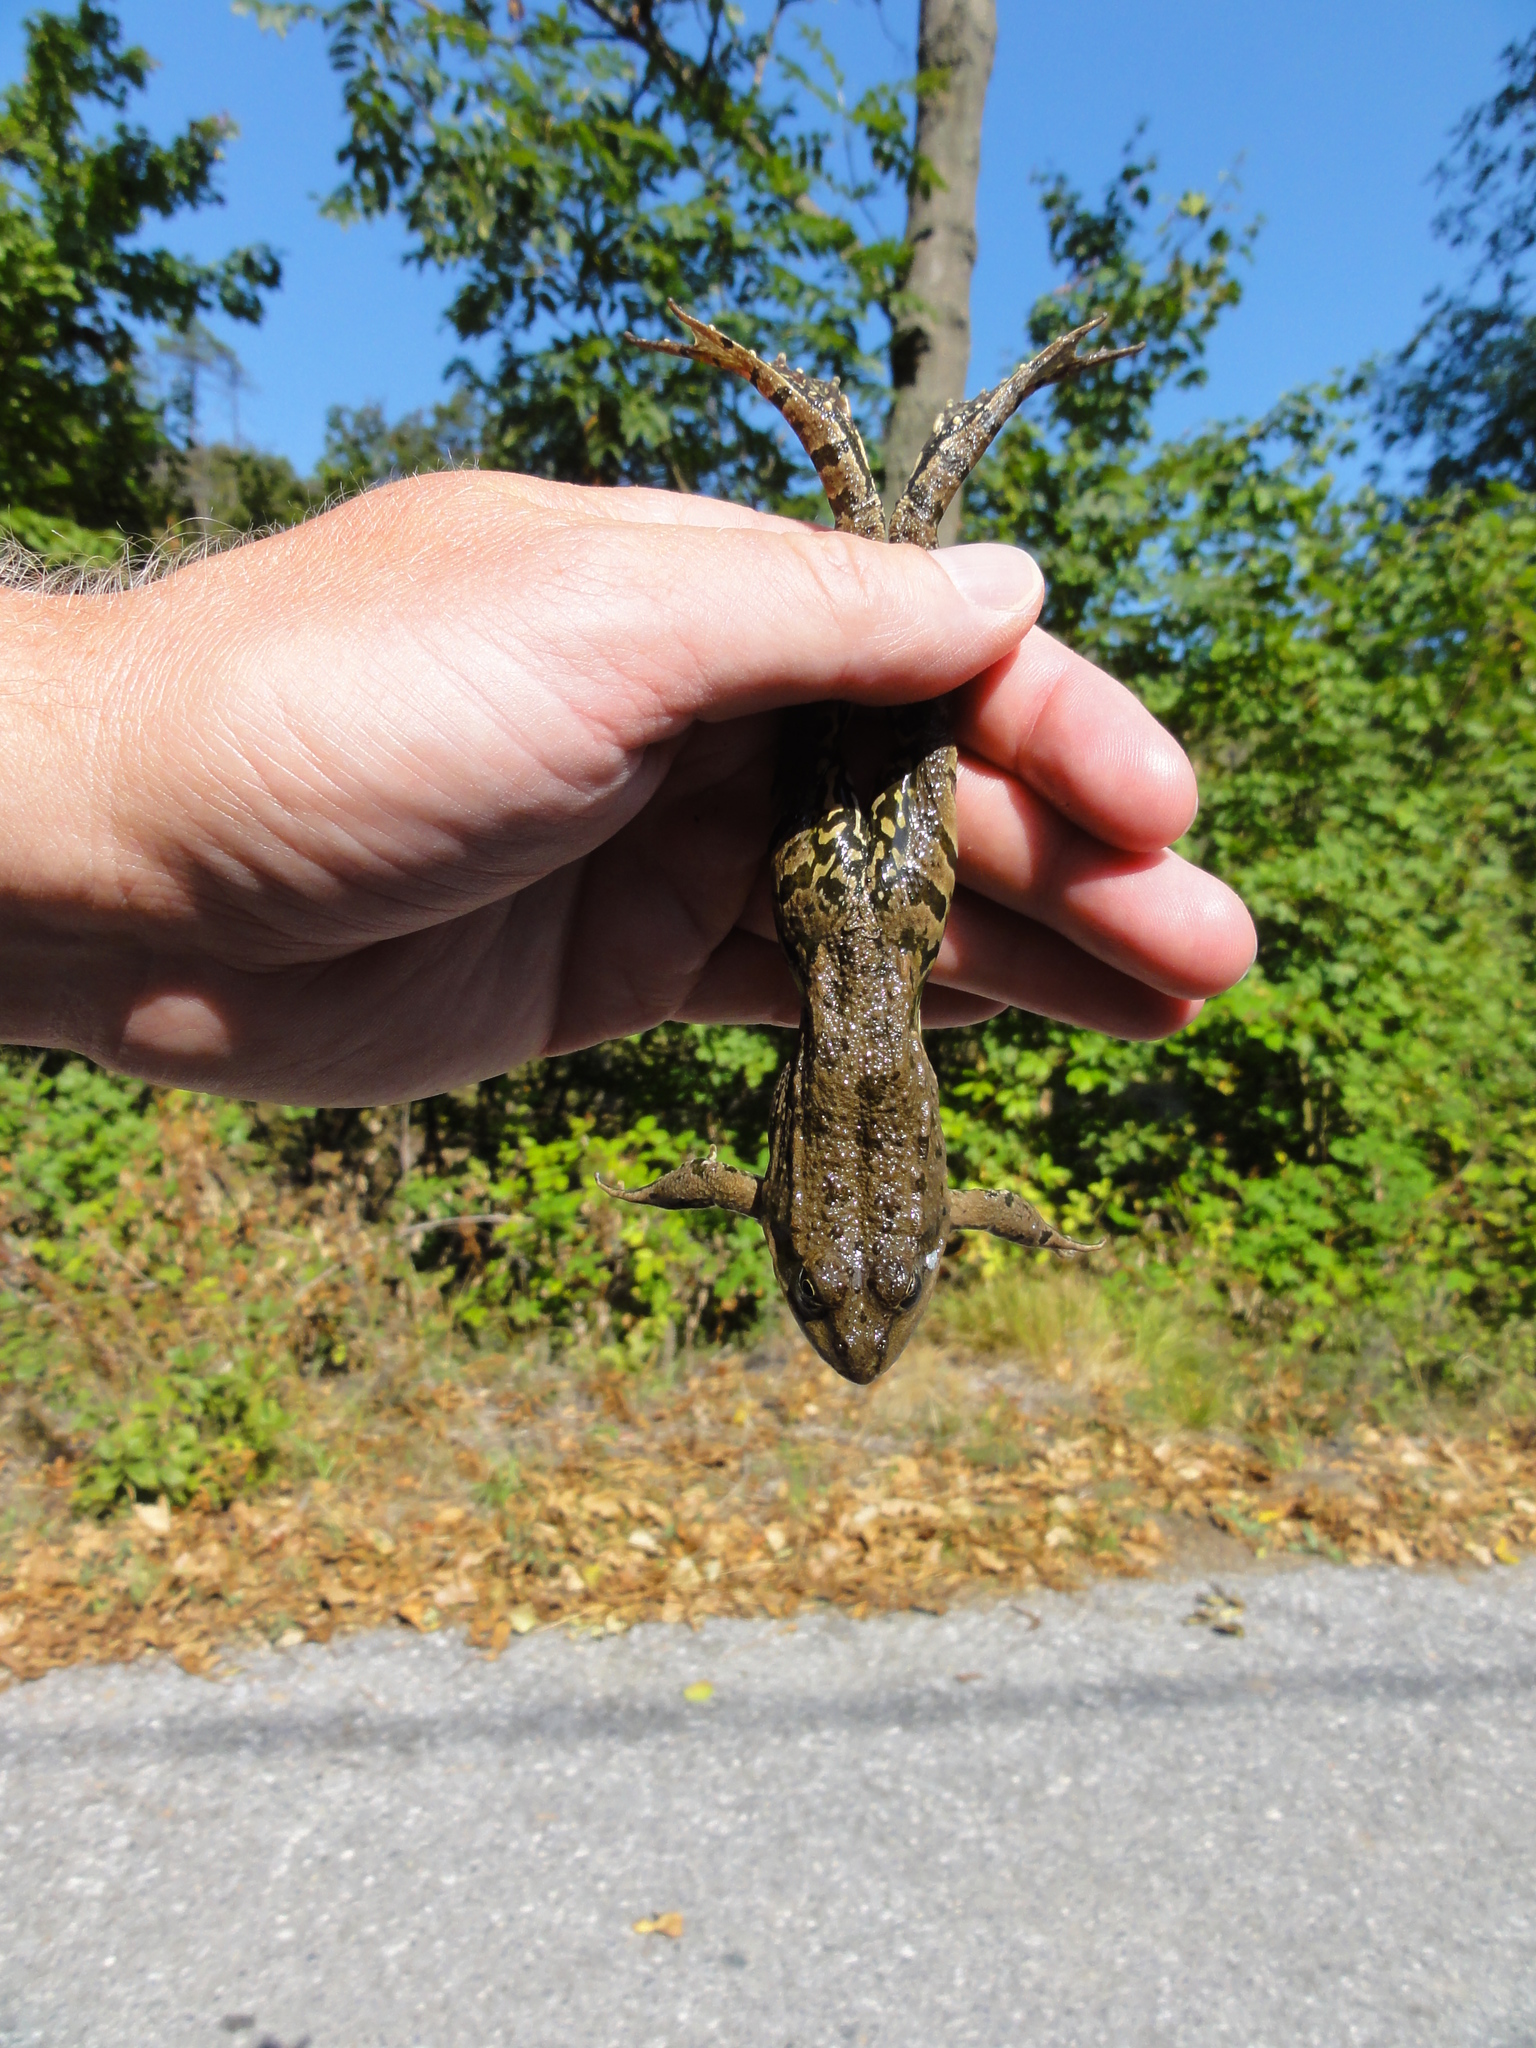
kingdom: Animalia
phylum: Chordata
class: Amphibia
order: Anura
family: Ranidae
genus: Pelophylax
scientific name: Pelophylax
